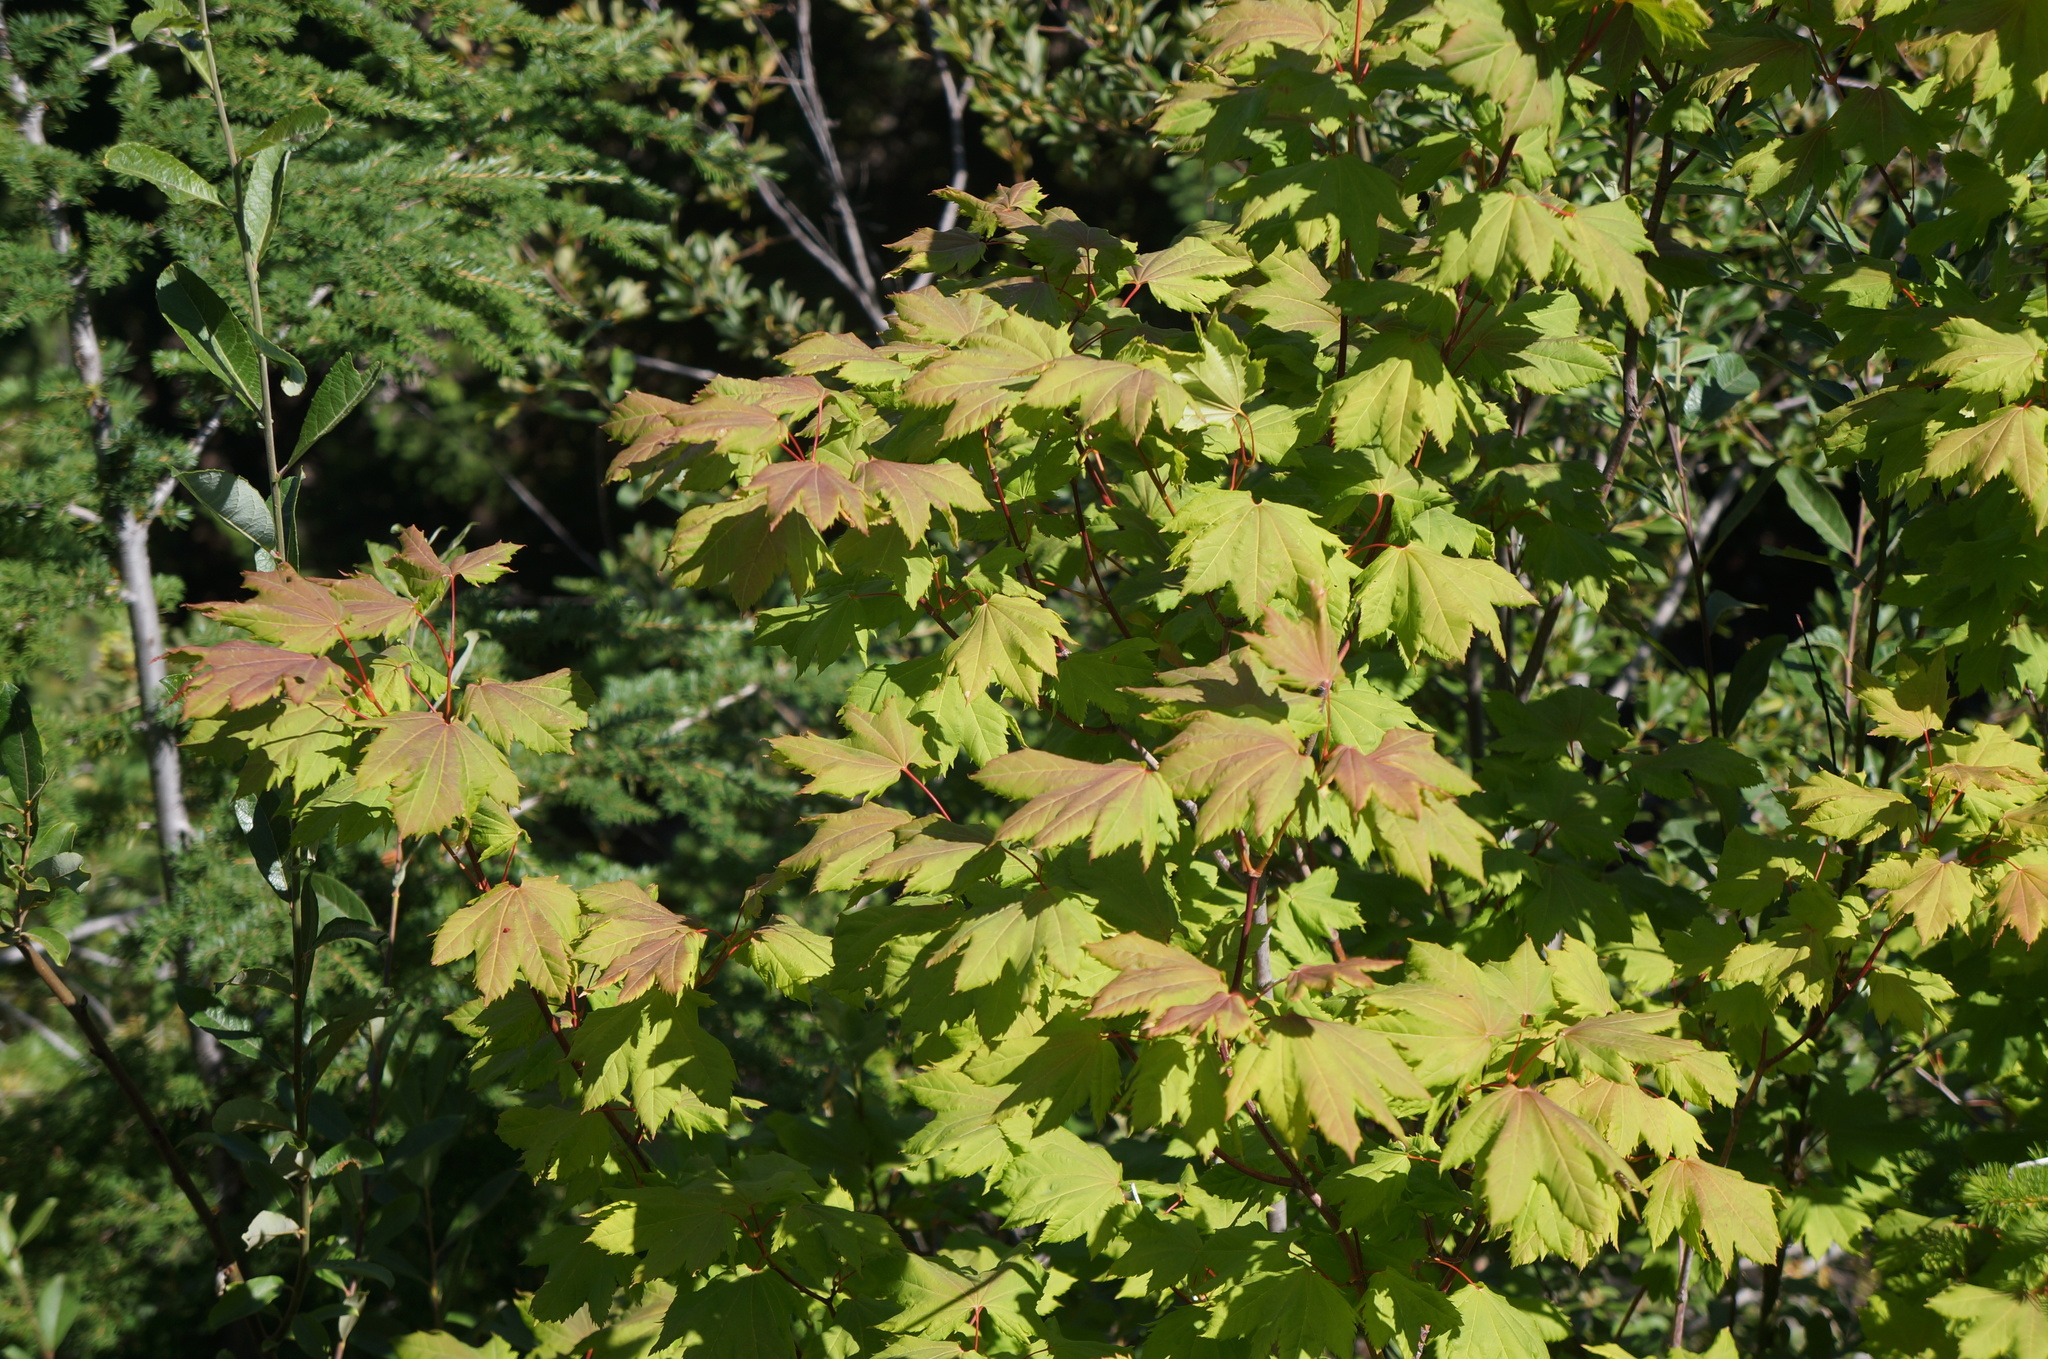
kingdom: Plantae
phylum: Tracheophyta
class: Magnoliopsida
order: Sapindales
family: Sapindaceae
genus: Acer
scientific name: Acer circinatum
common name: Vine maple
